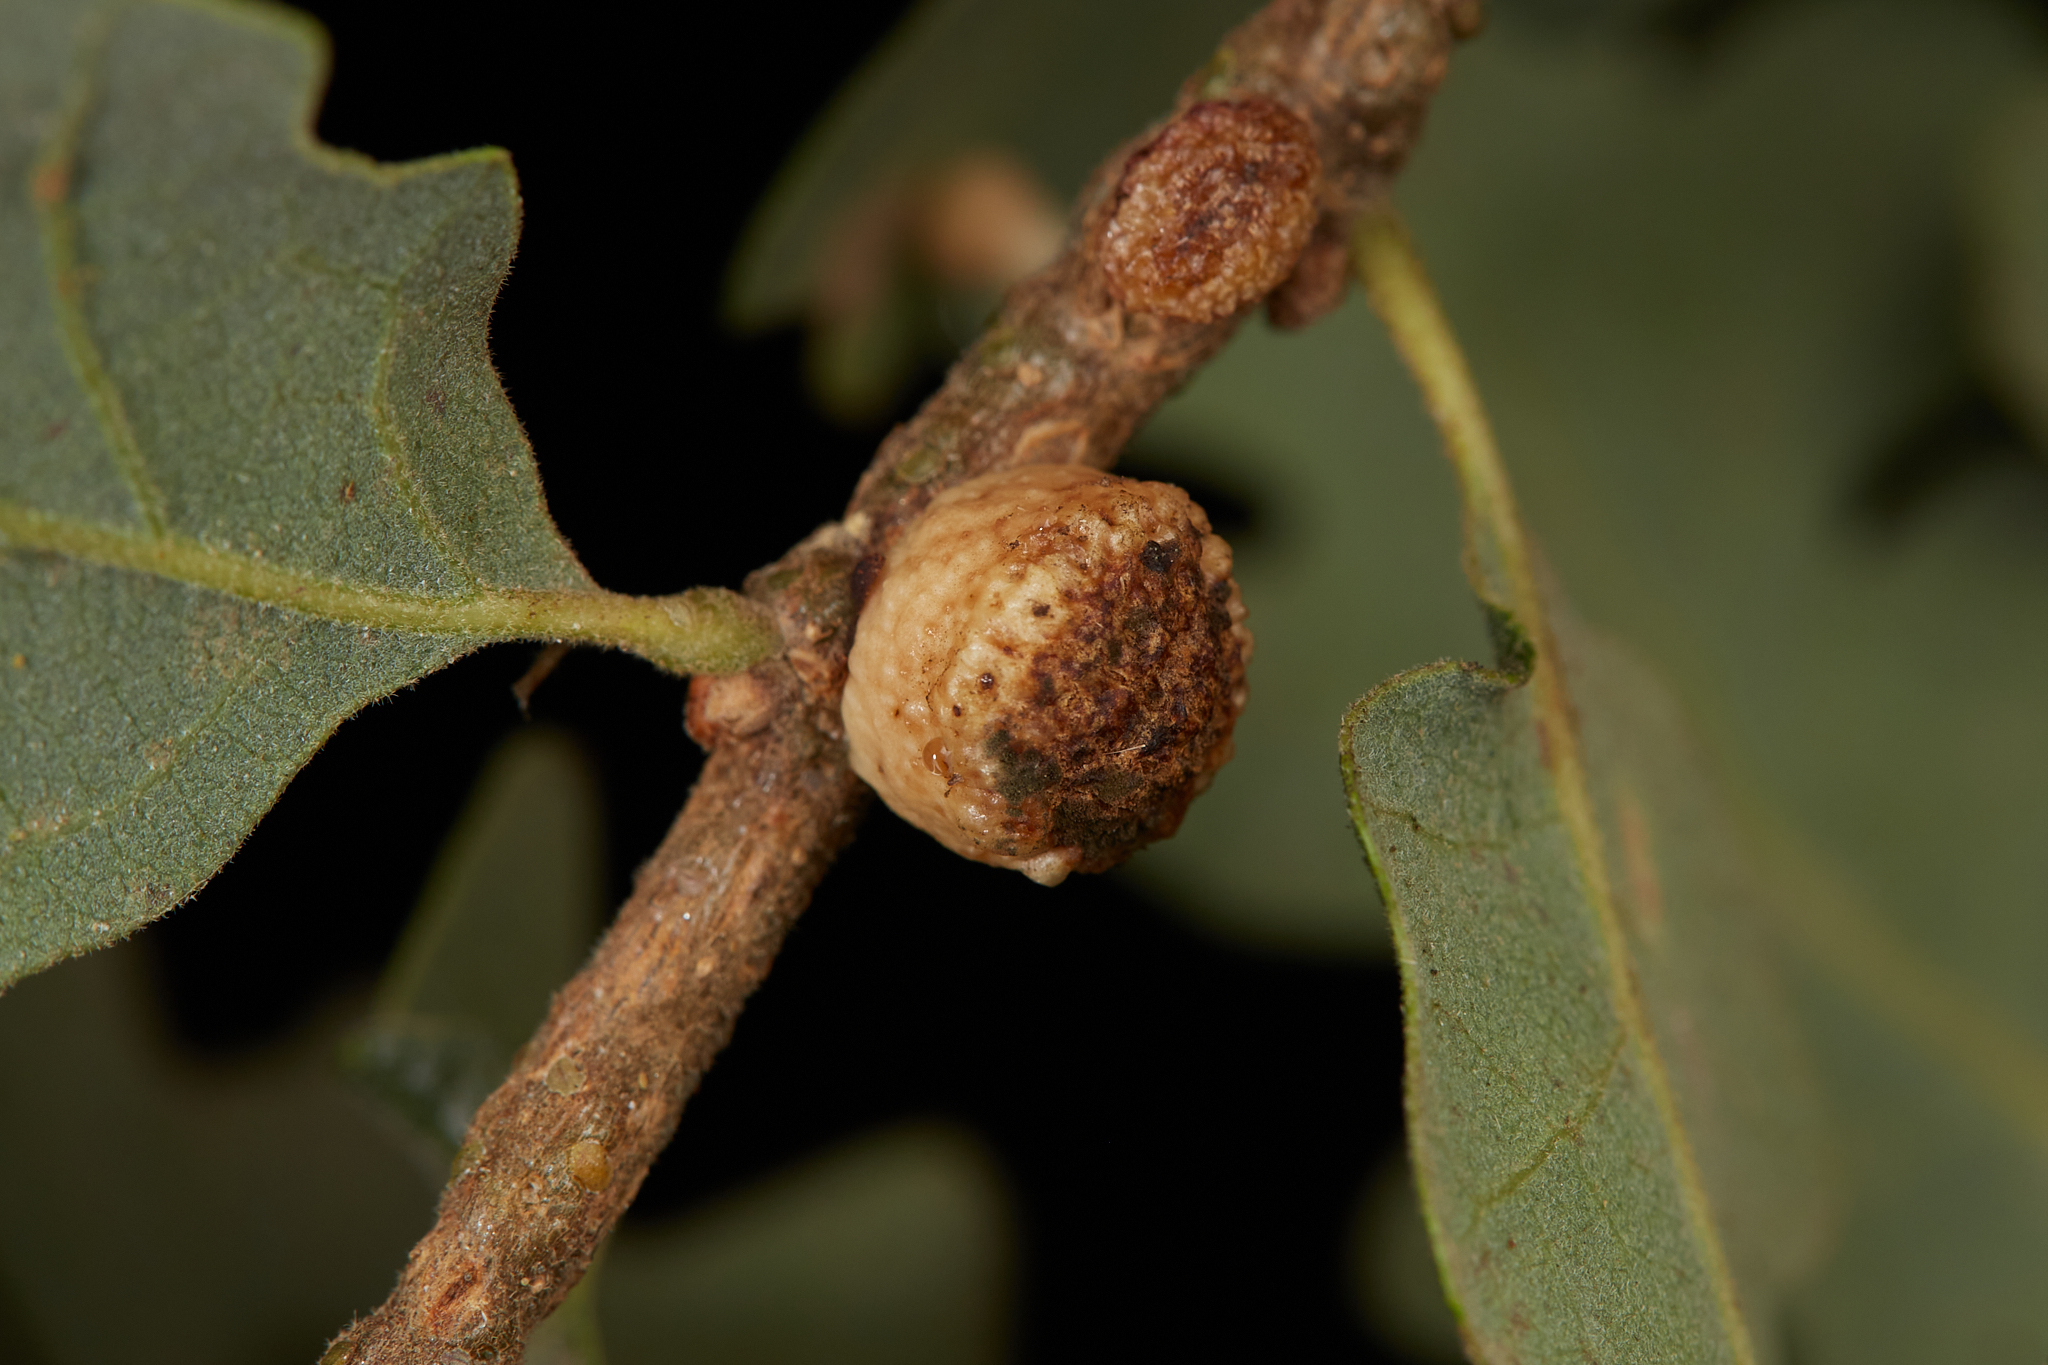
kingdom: Animalia
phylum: Arthropoda
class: Insecta
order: Hymenoptera
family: Cynipidae
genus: Disholcaspis
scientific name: Disholcaspis
